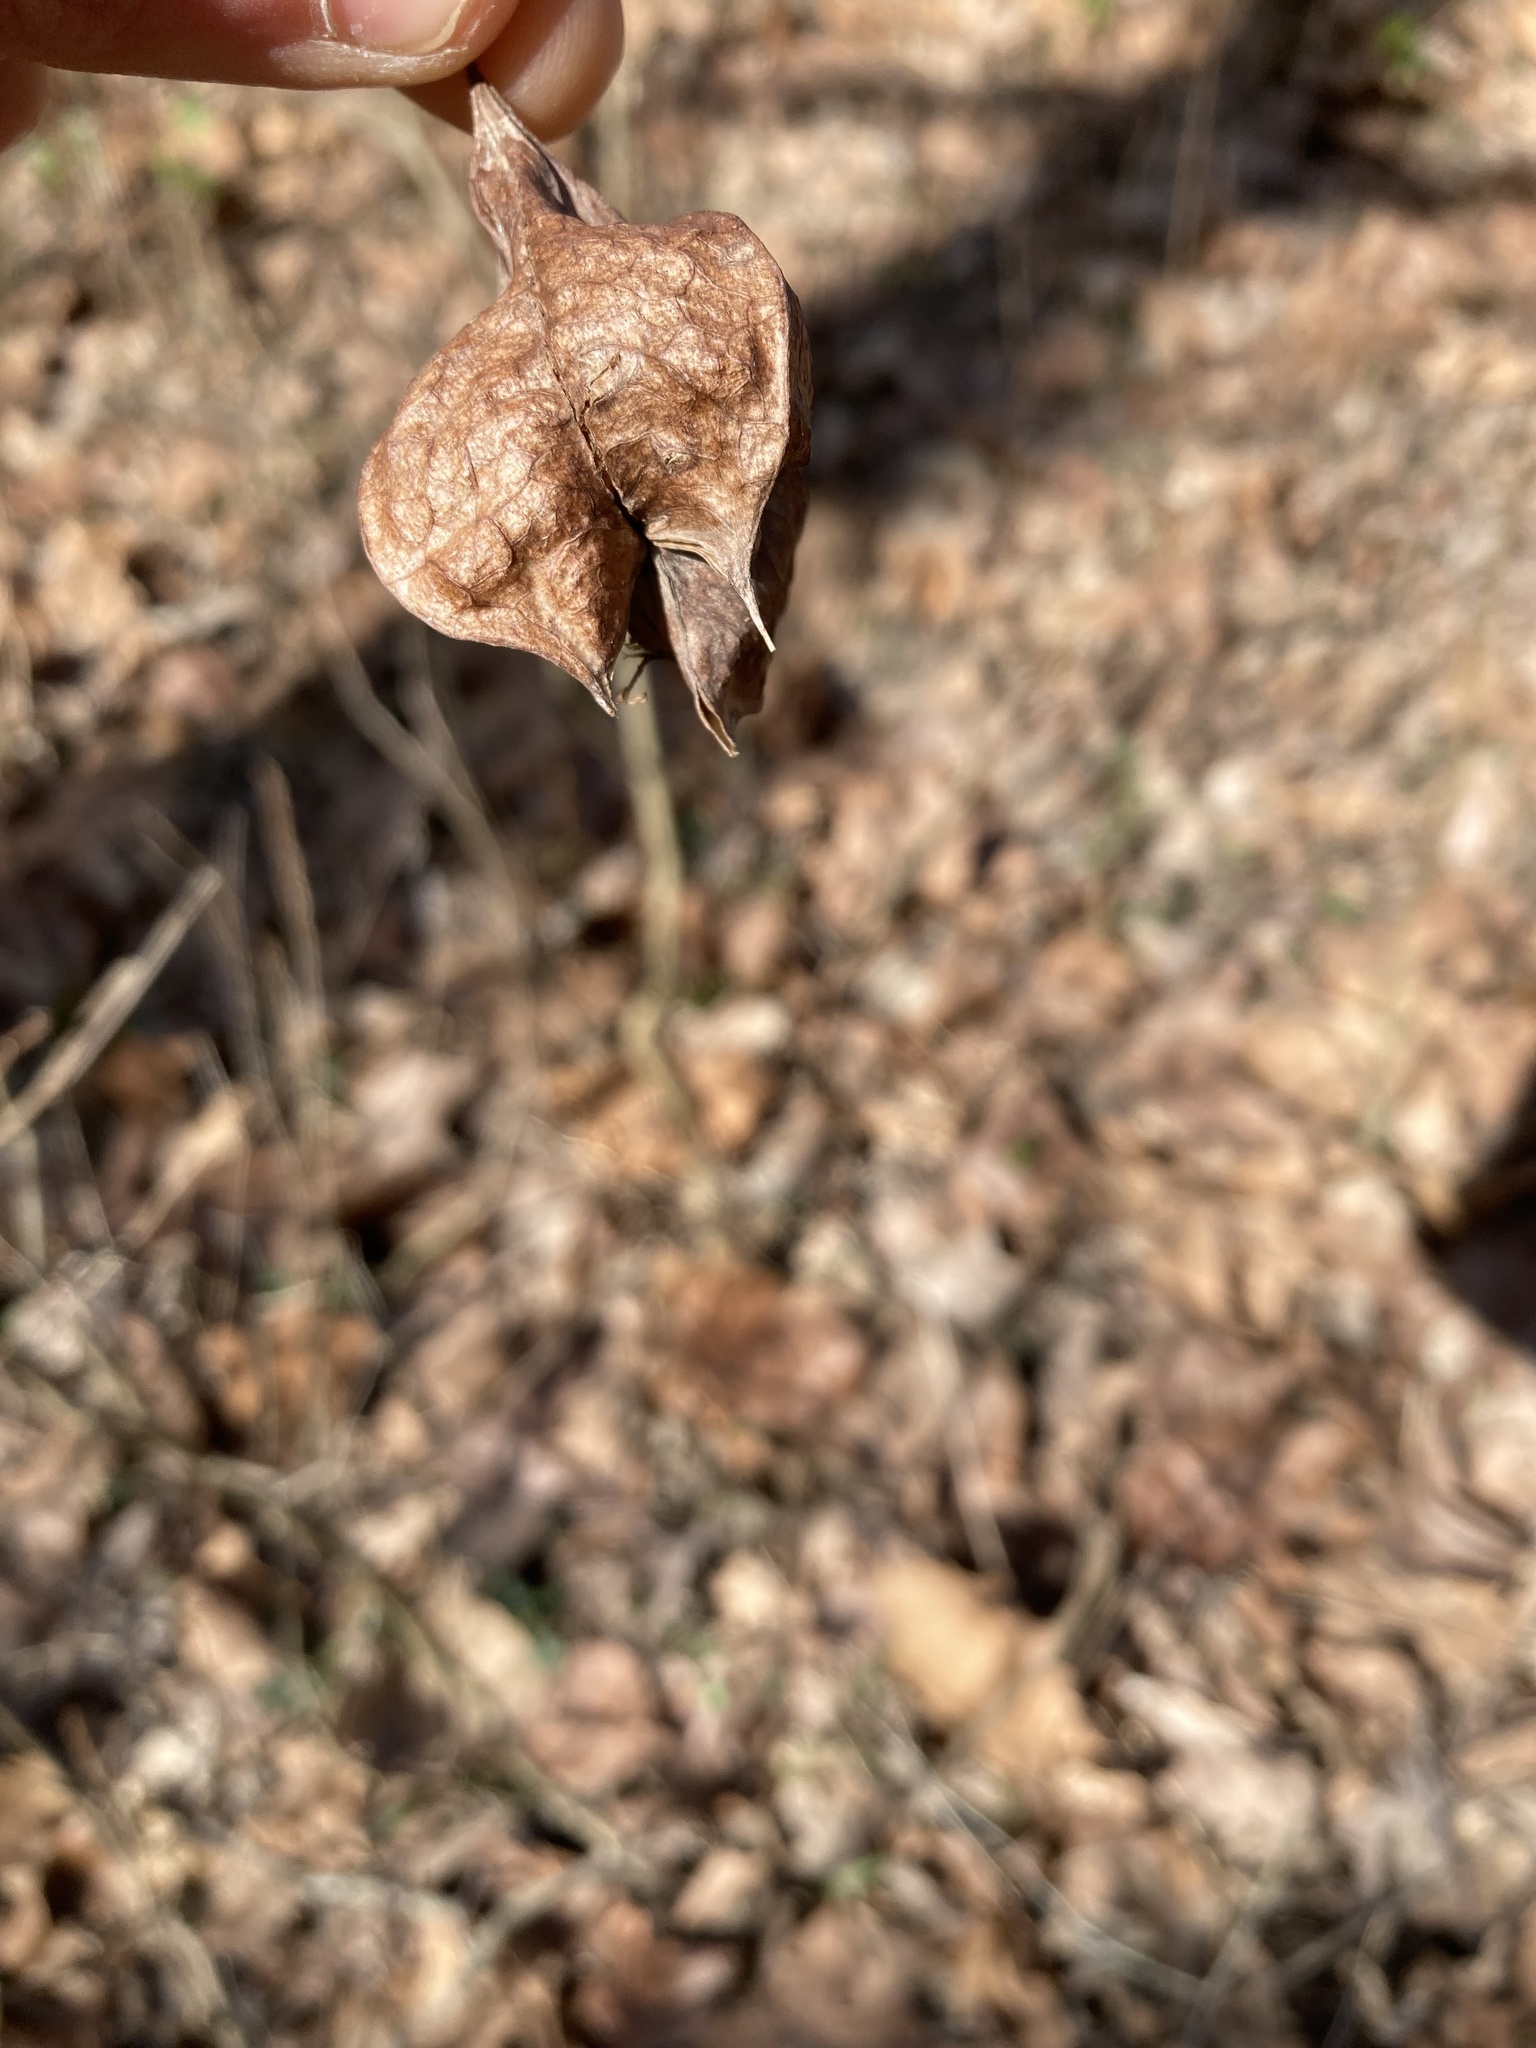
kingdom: Plantae
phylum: Tracheophyta
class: Magnoliopsida
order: Crossosomatales
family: Staphyleaceae
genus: Staphylea
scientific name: Staphylea trifolia
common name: American bladdernut
